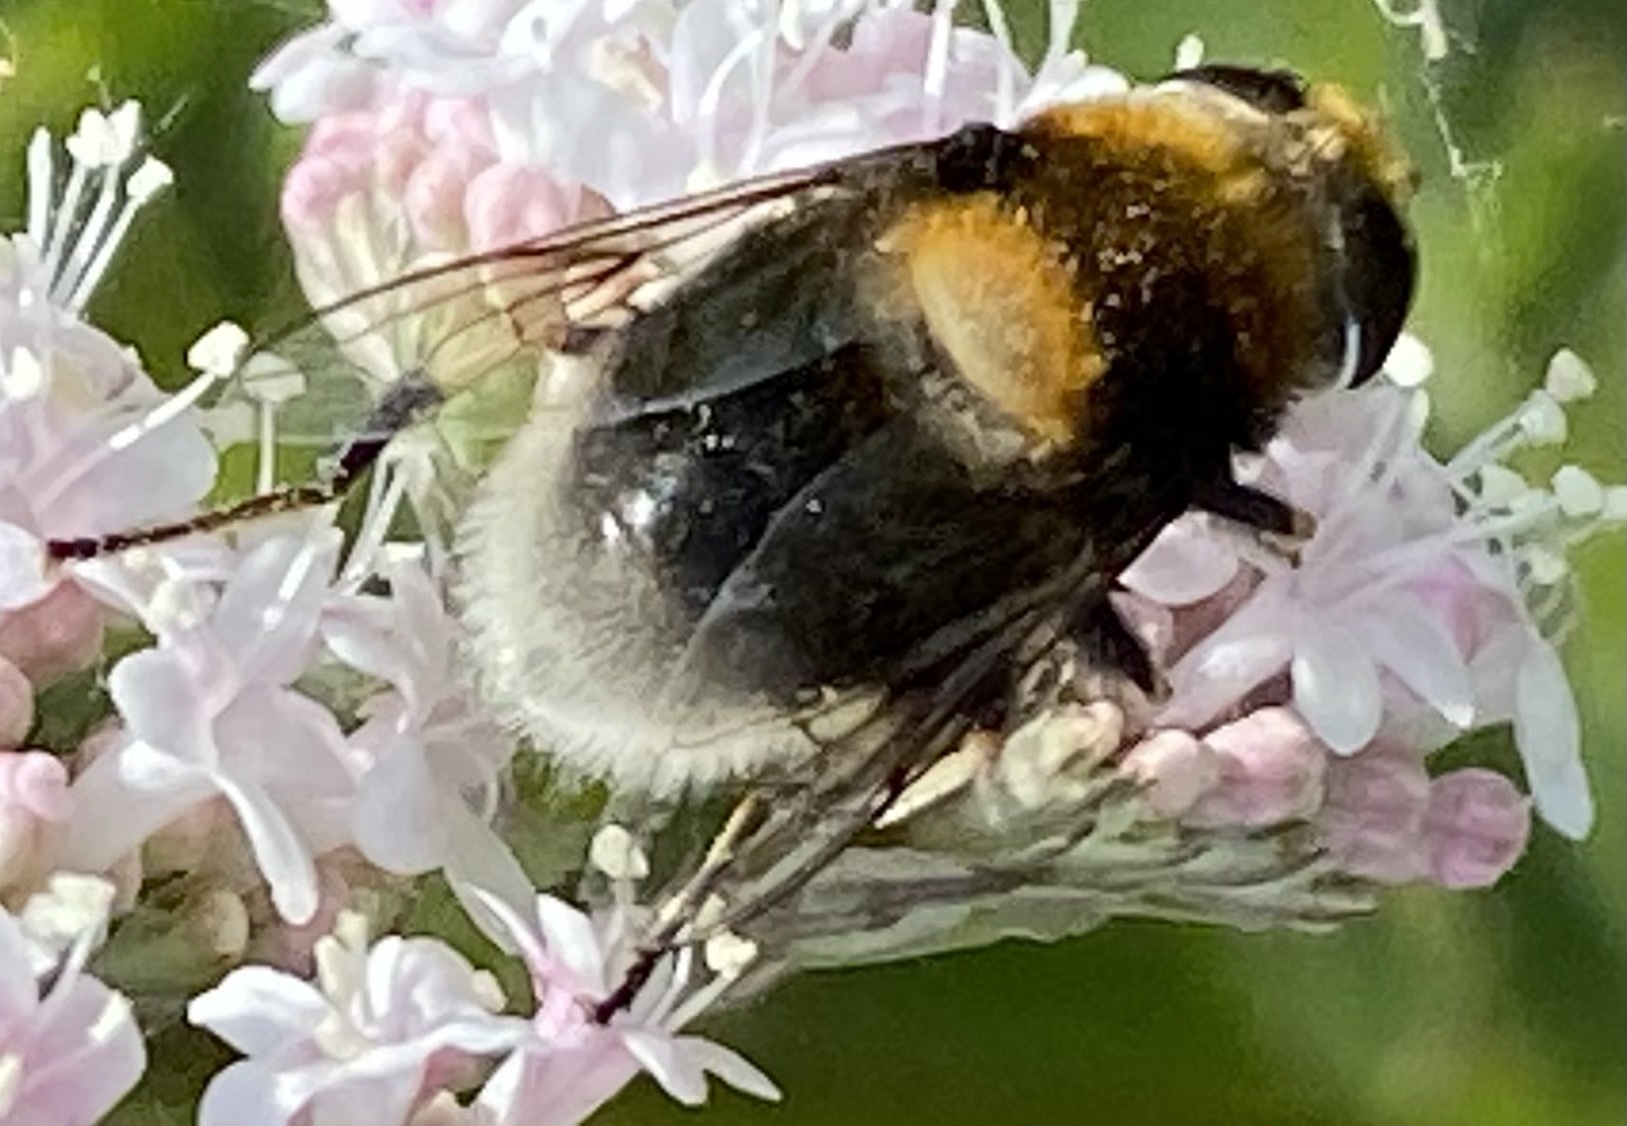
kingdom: Animalia
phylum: Arthropoda
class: Insecta
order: Diptera
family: Syrphidae
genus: Eristalis
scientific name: Eristalis intricaria
